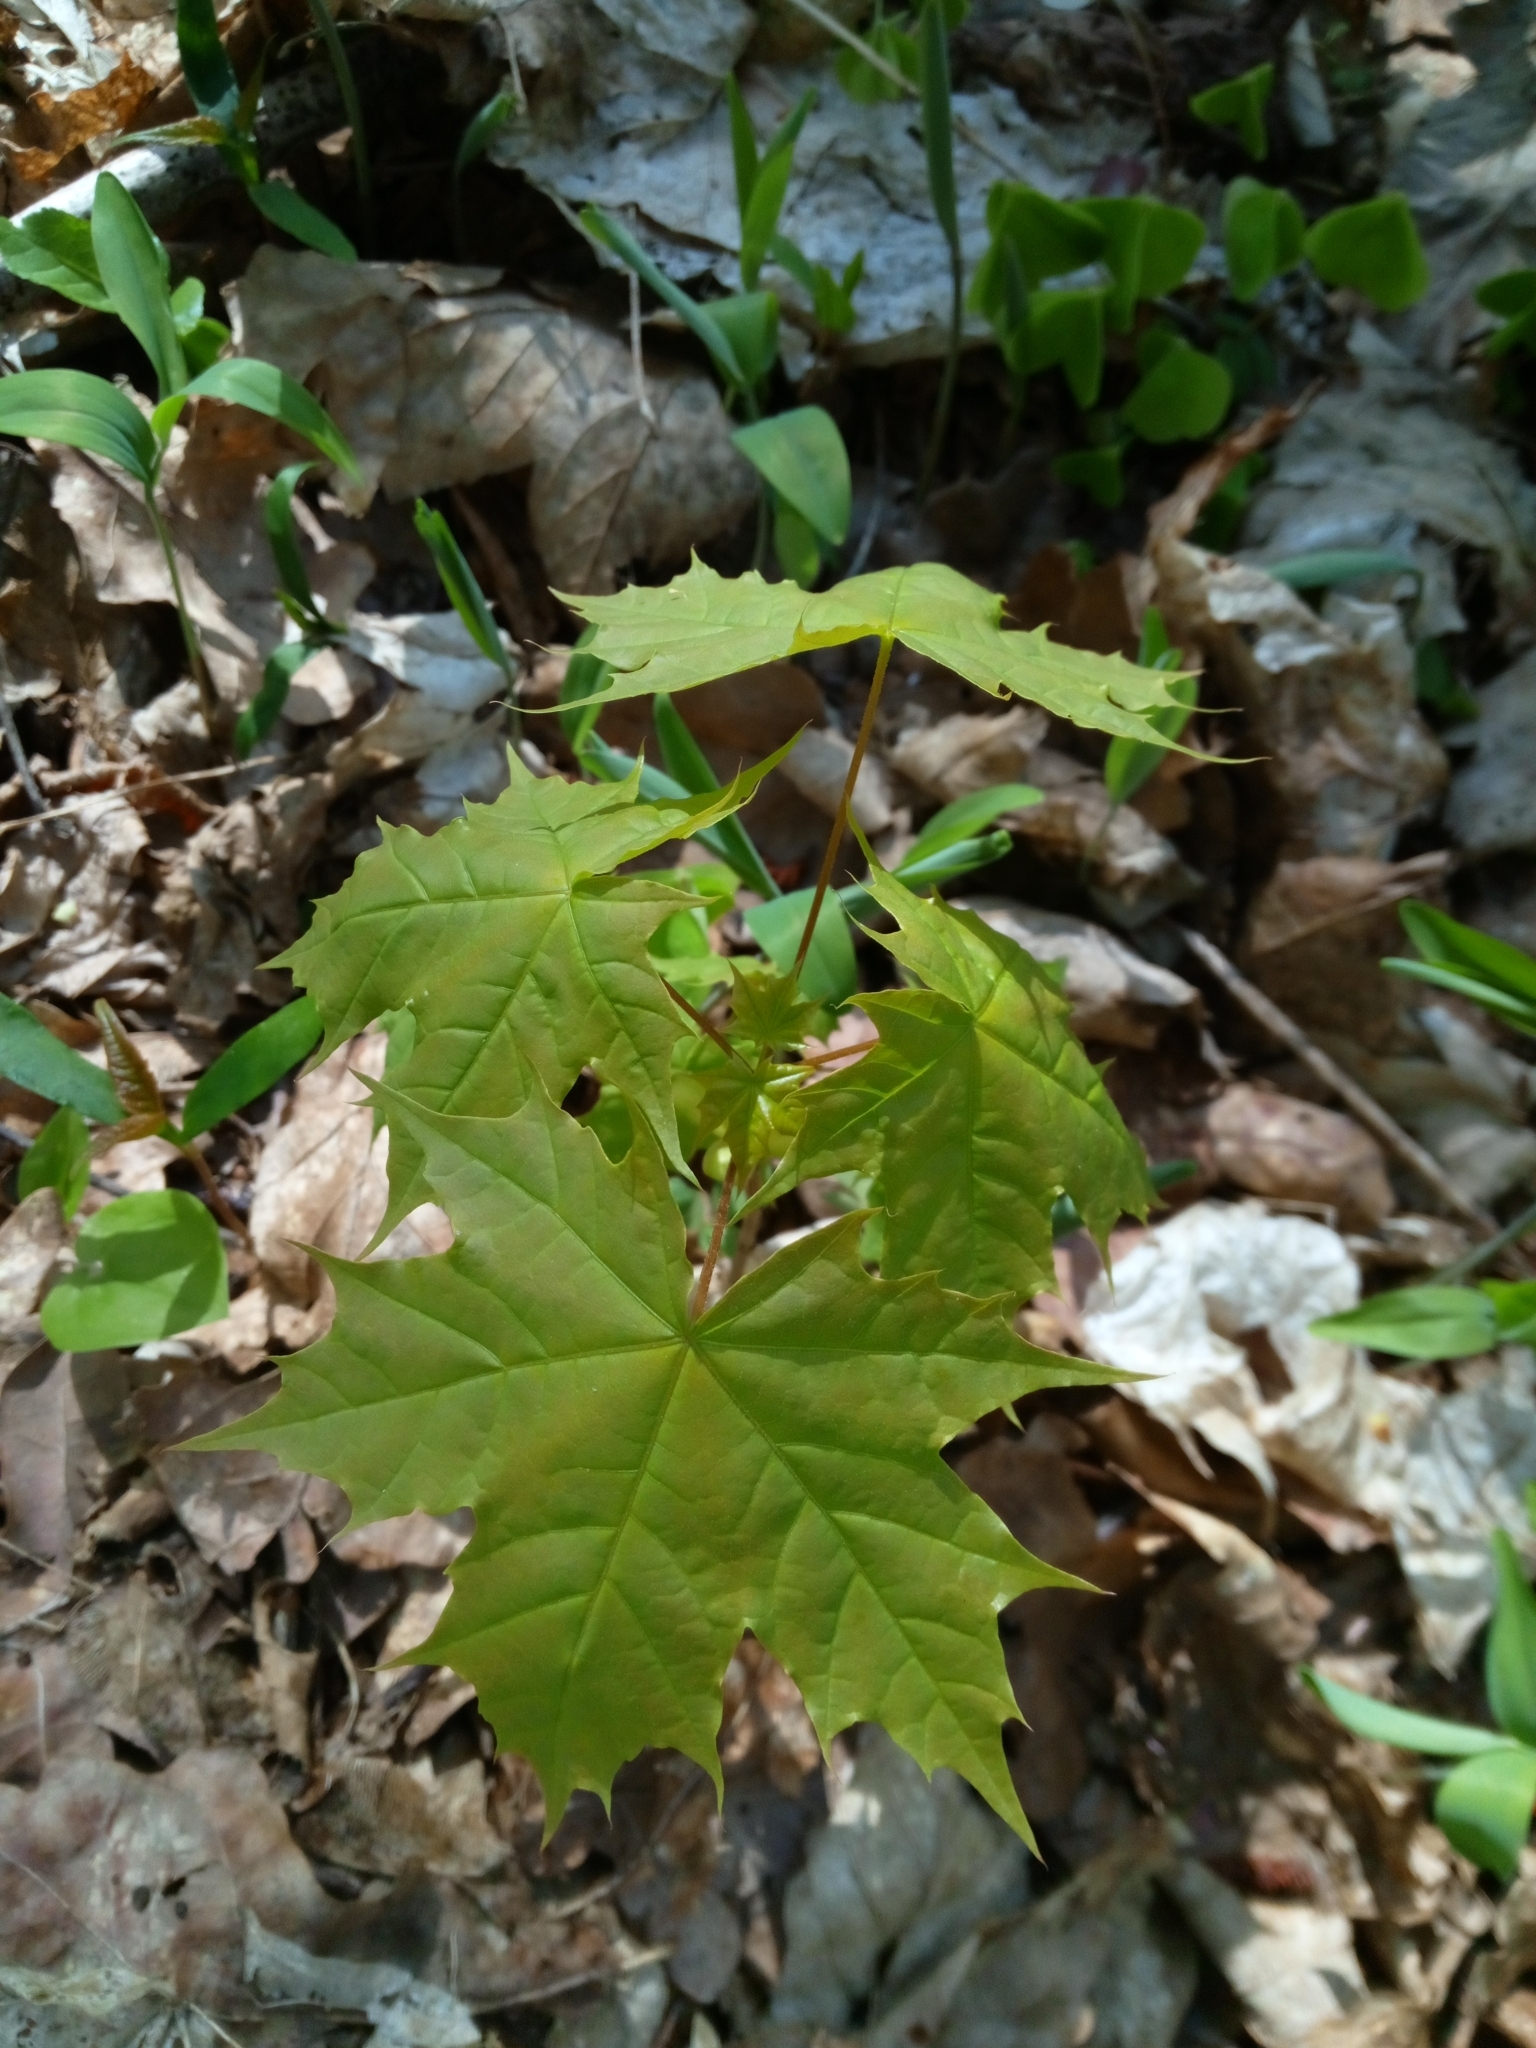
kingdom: Plantae
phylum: Tracheophyta
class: Magnoliopsida
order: Sapindales
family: Sapindaceae
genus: Acer
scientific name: Acer platanoides
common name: Norway maple
